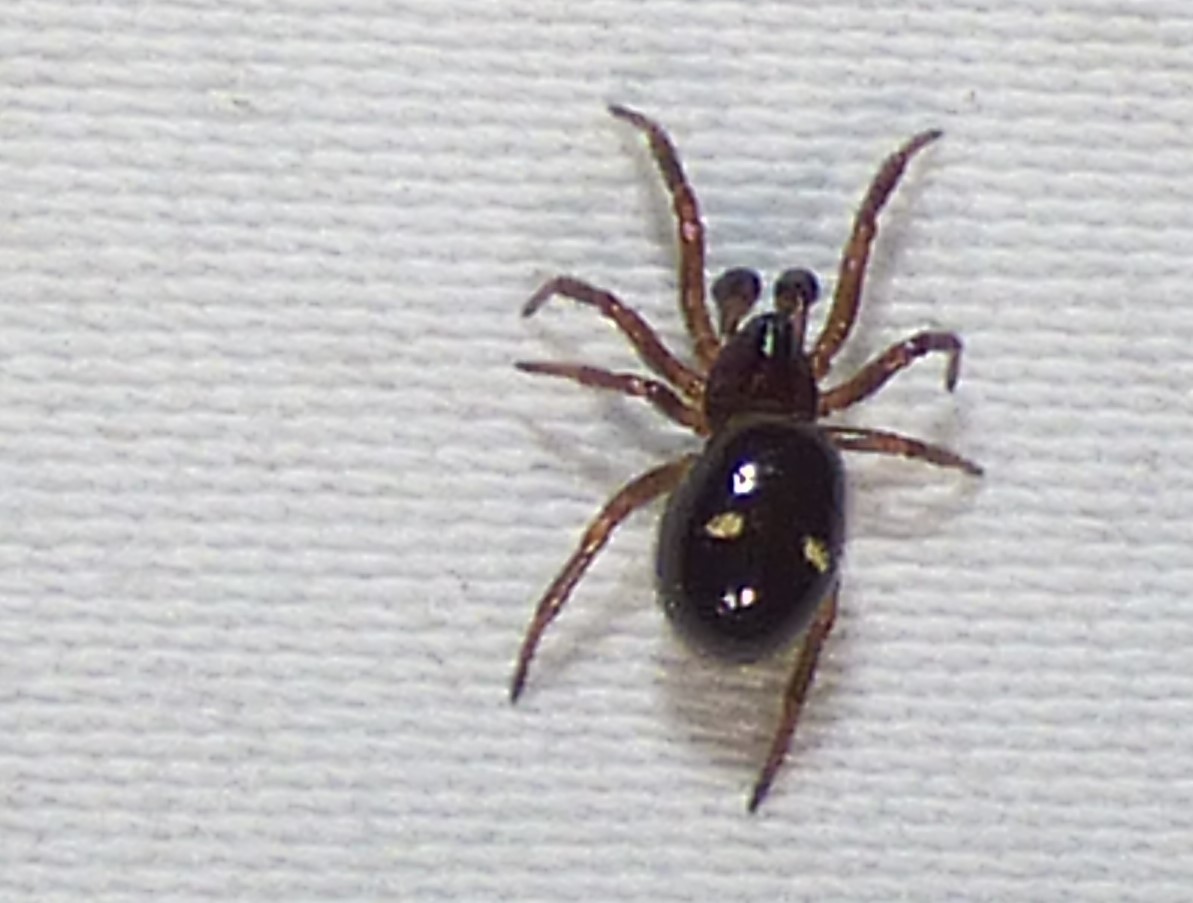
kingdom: Animalia
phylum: Arthropoda
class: Arachnida
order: Araneae
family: Theridiidae
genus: Asagena
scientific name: Asagena americana
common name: Two-spotted cobweb spider
